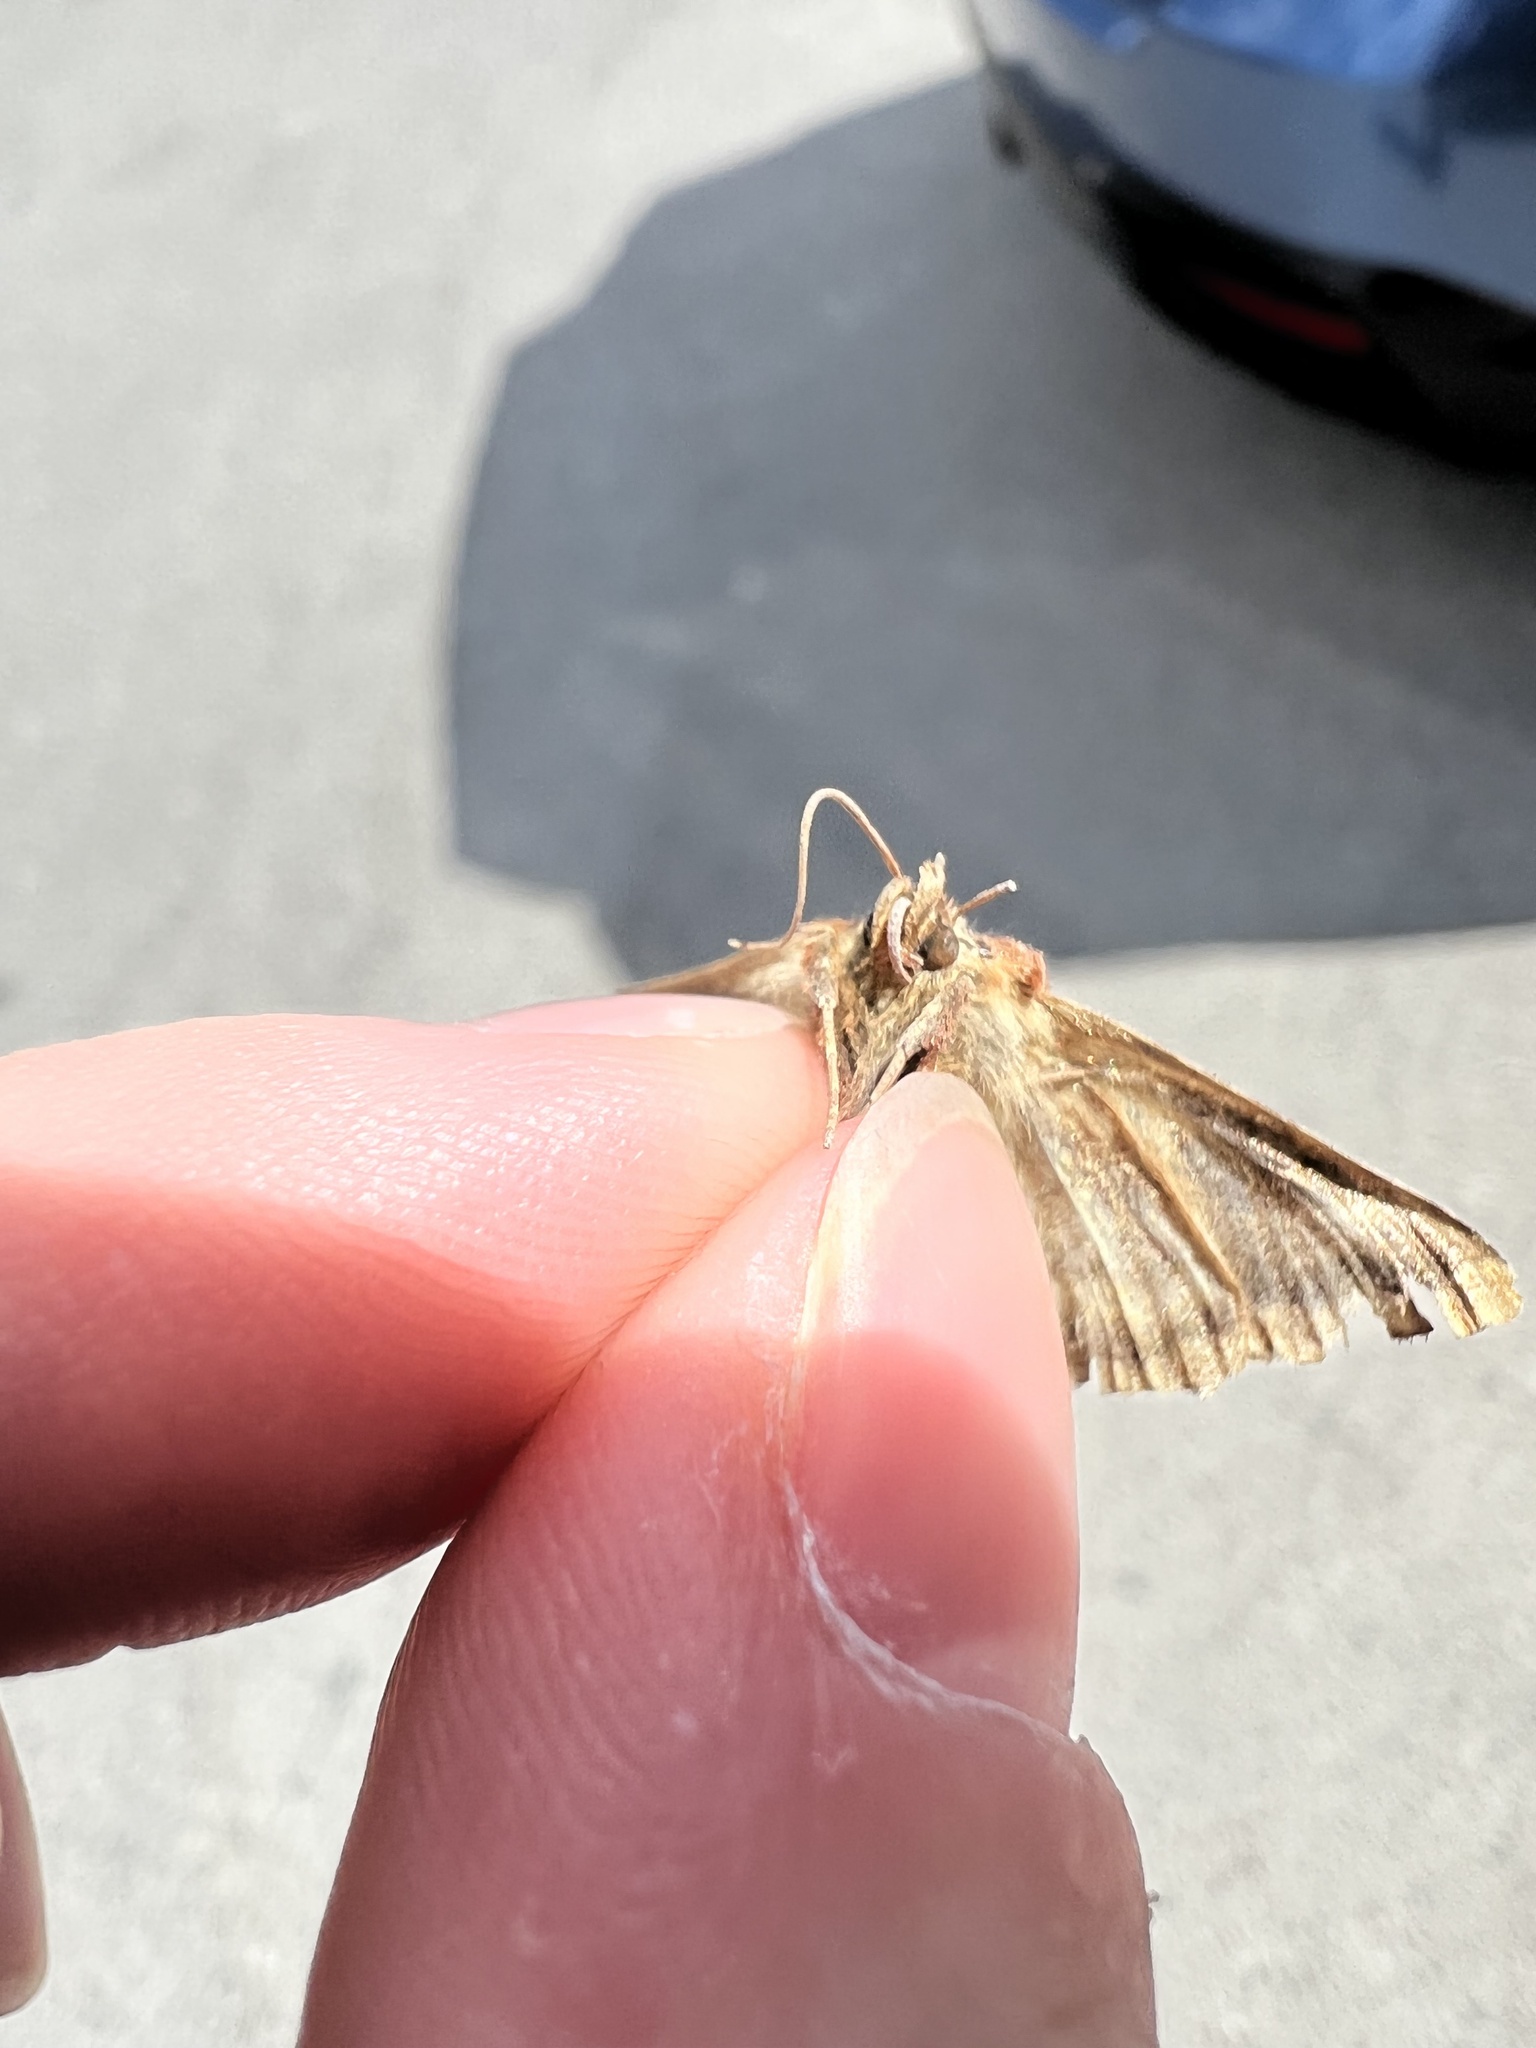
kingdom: Animalia
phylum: Arthropoda
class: Insecta
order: Lepidoptera
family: Noctuidae
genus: Autographa
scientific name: Autographa mappa
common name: Wavy chestnut y moth
